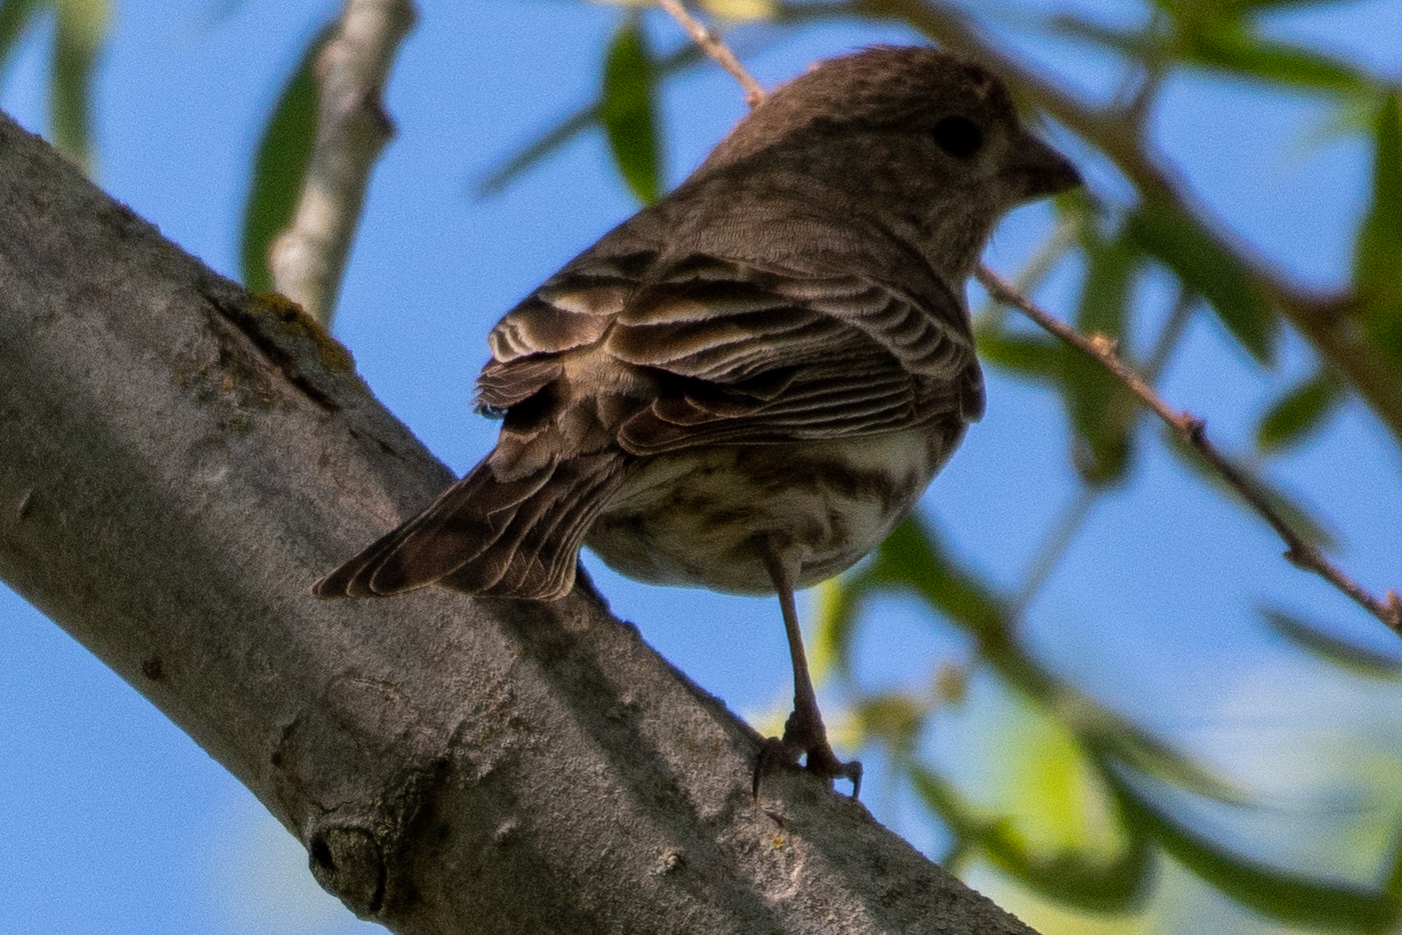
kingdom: Animalia
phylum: Chordata
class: Aves
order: Passeriformes
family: Fringillidae
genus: Haemorhous
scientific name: Haemorhous mexicanus
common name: House finch
